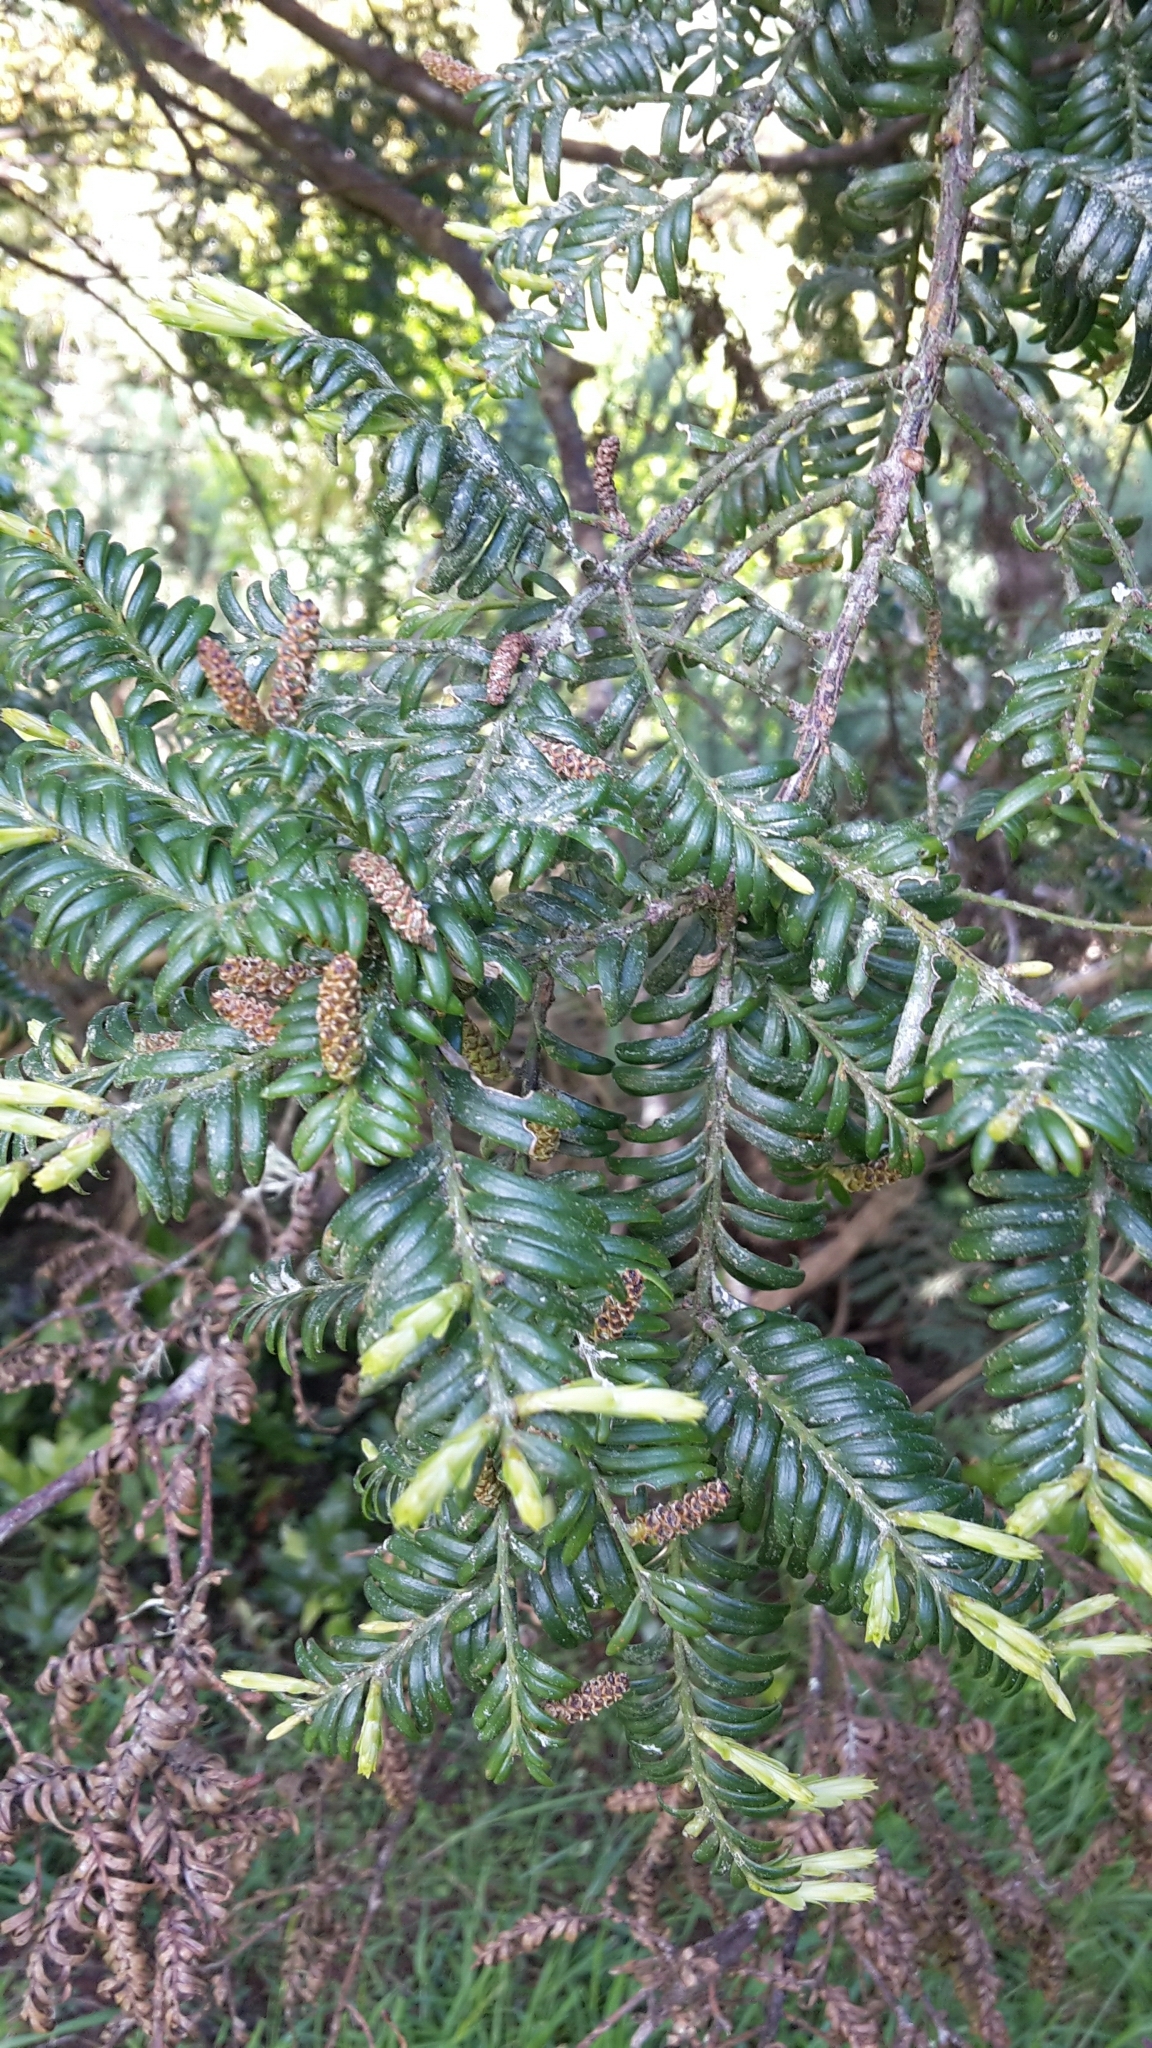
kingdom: Plantae
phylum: Tracheophyta
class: Pinopsida
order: Pinales
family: Podocarpaceae
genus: Prumnopitys
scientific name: Prumnopitys ferruginea
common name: Brown pine
